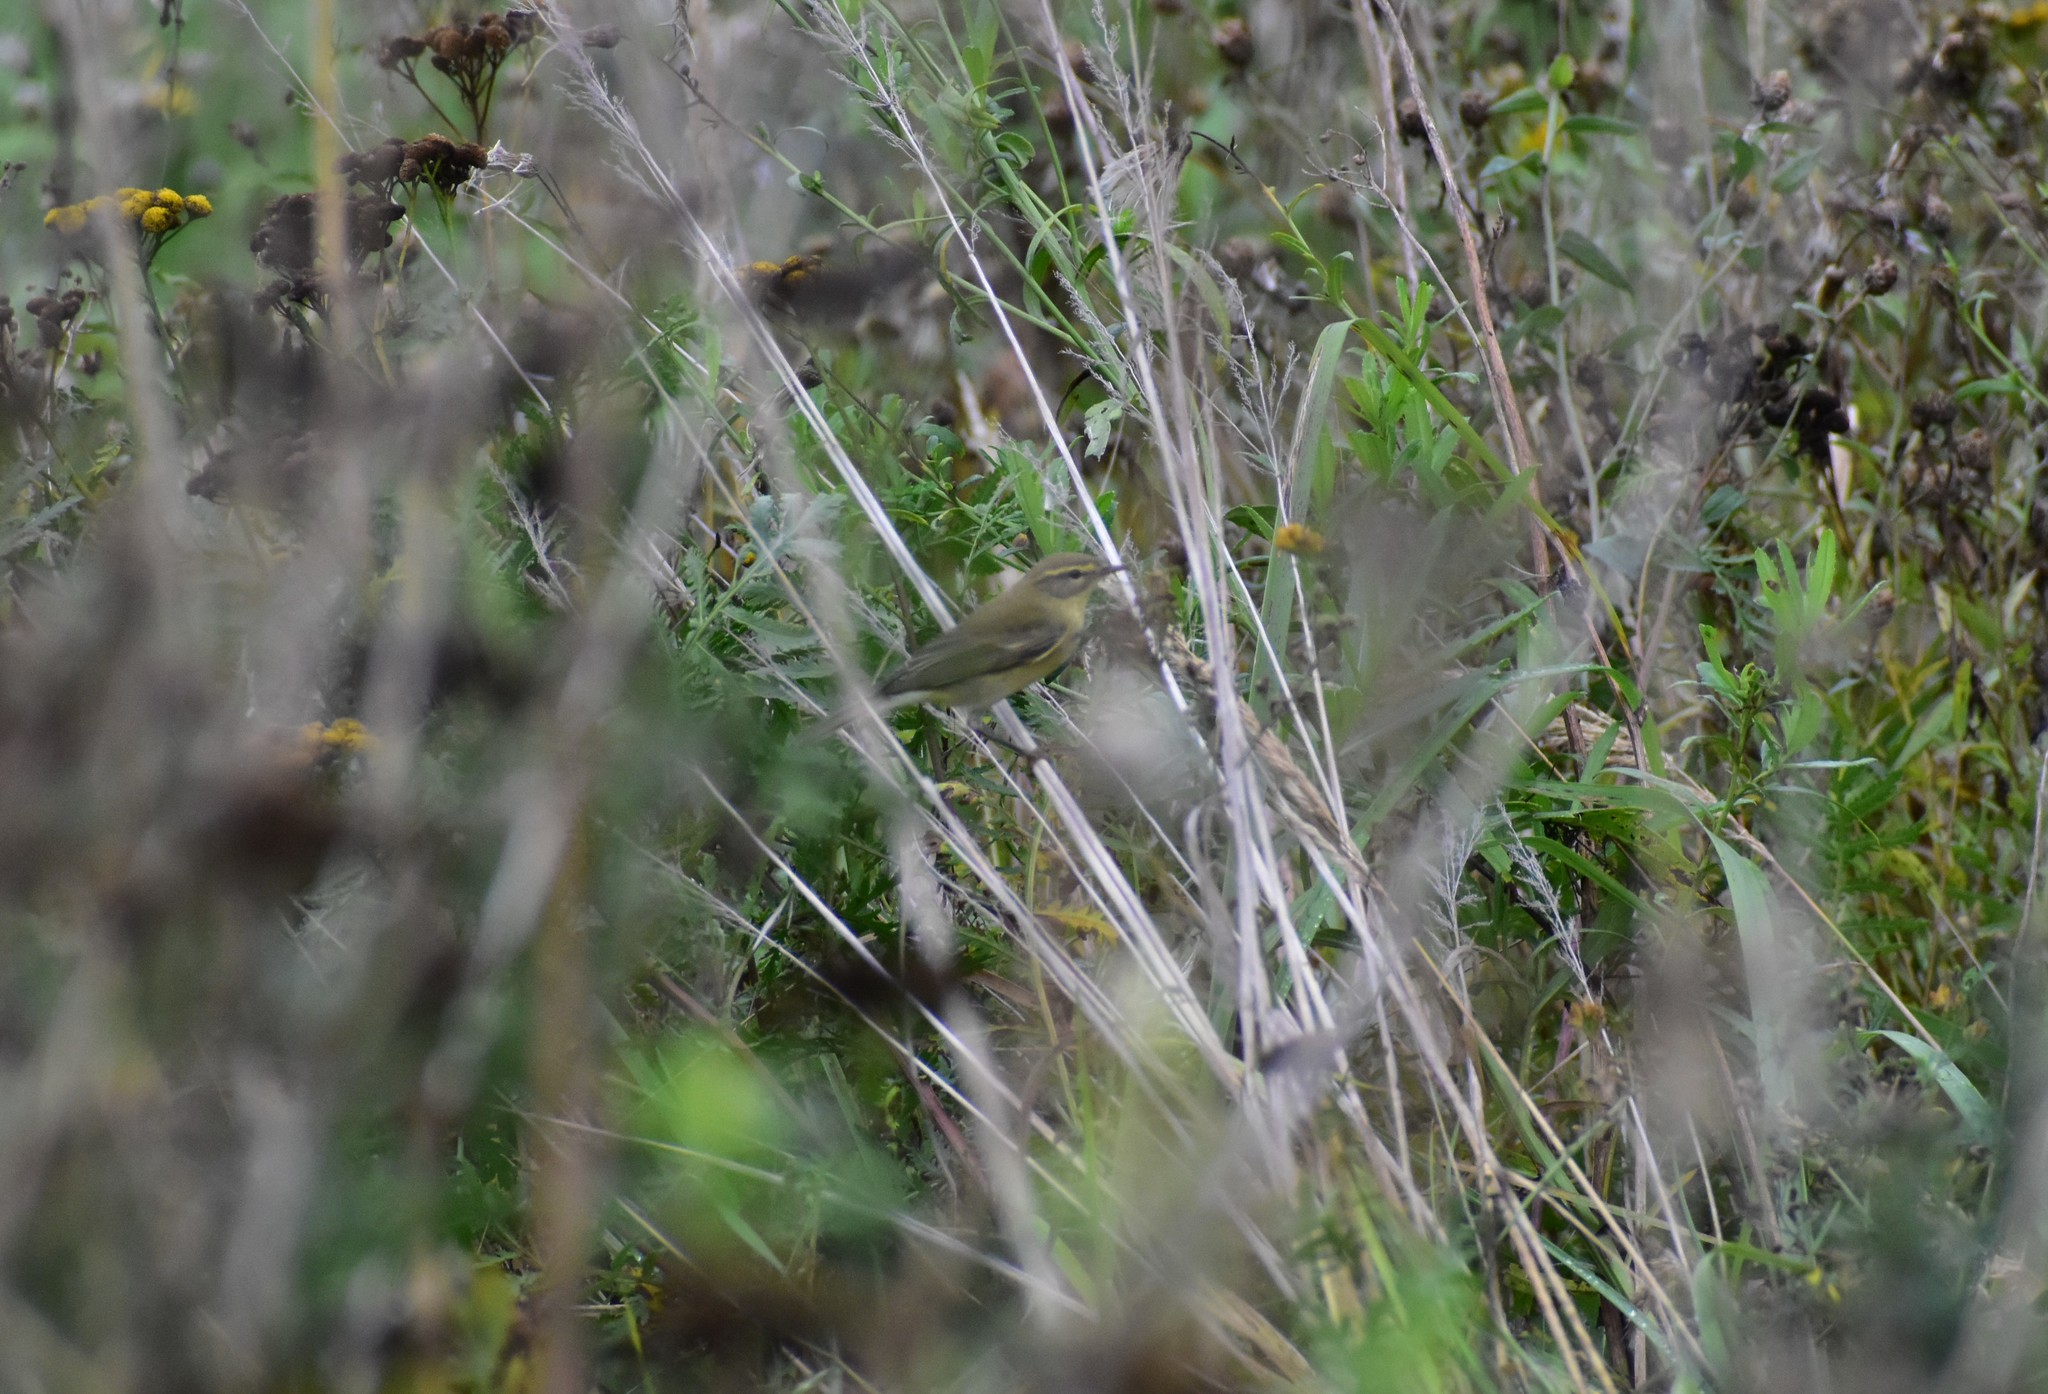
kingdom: Animalia
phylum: Chordata
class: Aves
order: Passeriformes
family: Phylloscopidae
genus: Phylloscopus
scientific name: Phylloscopus collybita
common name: Common chiffchaff
